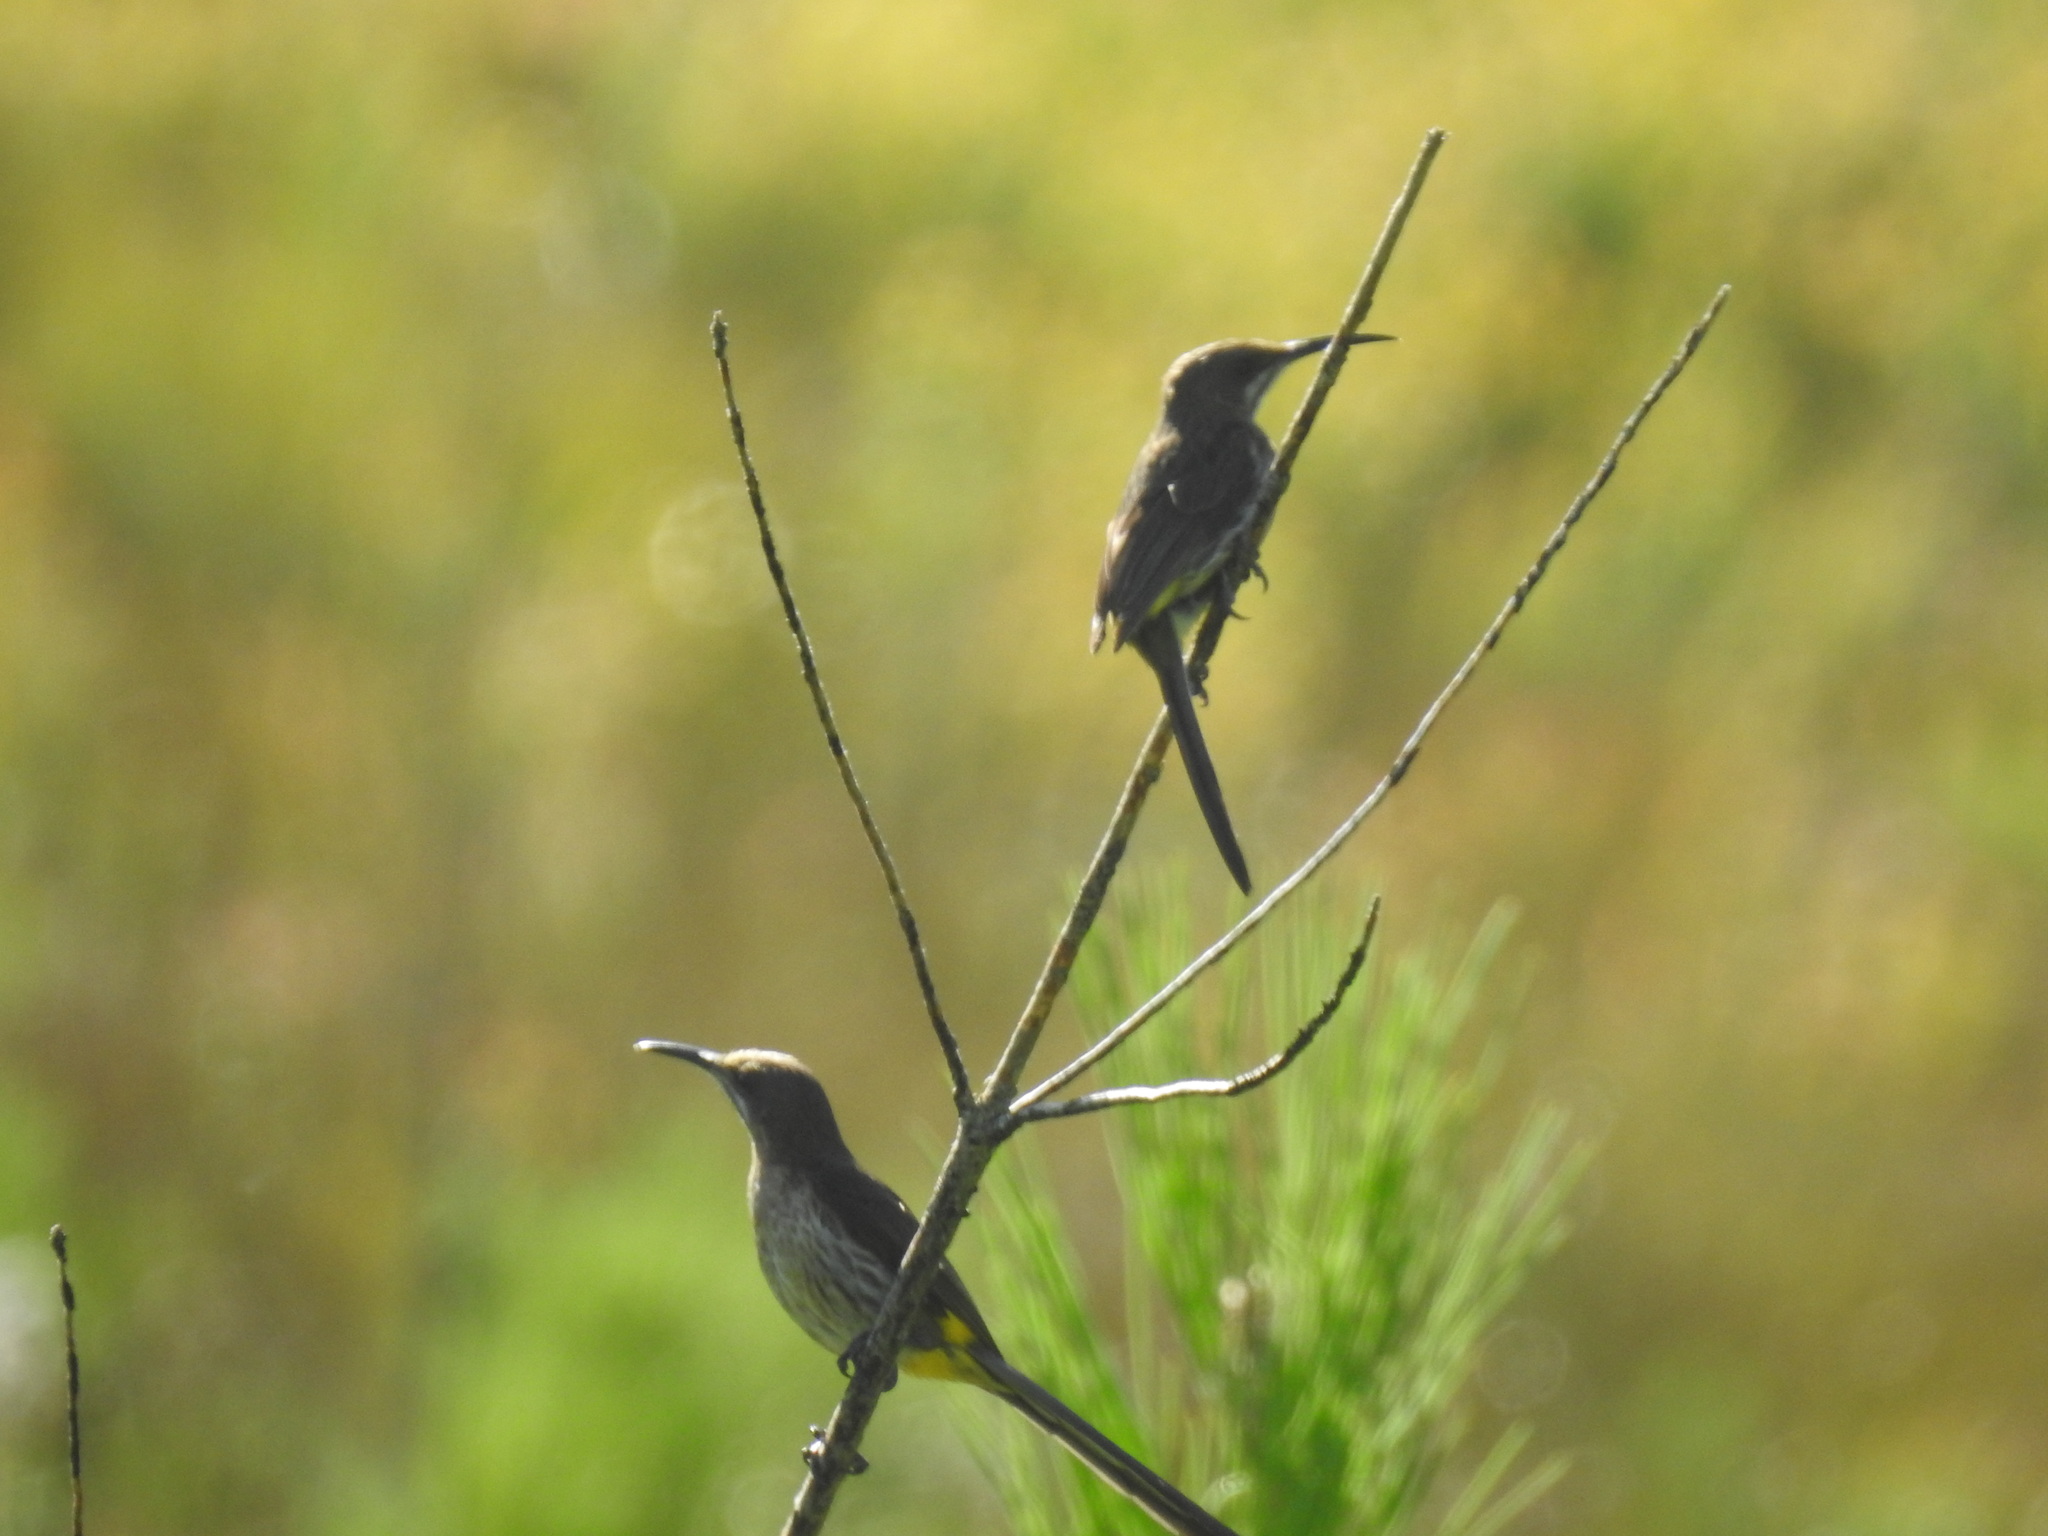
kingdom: Animalia
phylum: Chordata
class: Aves
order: Passeriformes
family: Promeropidae
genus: Promerops
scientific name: Promerops cafer
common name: Cape sugarbird
